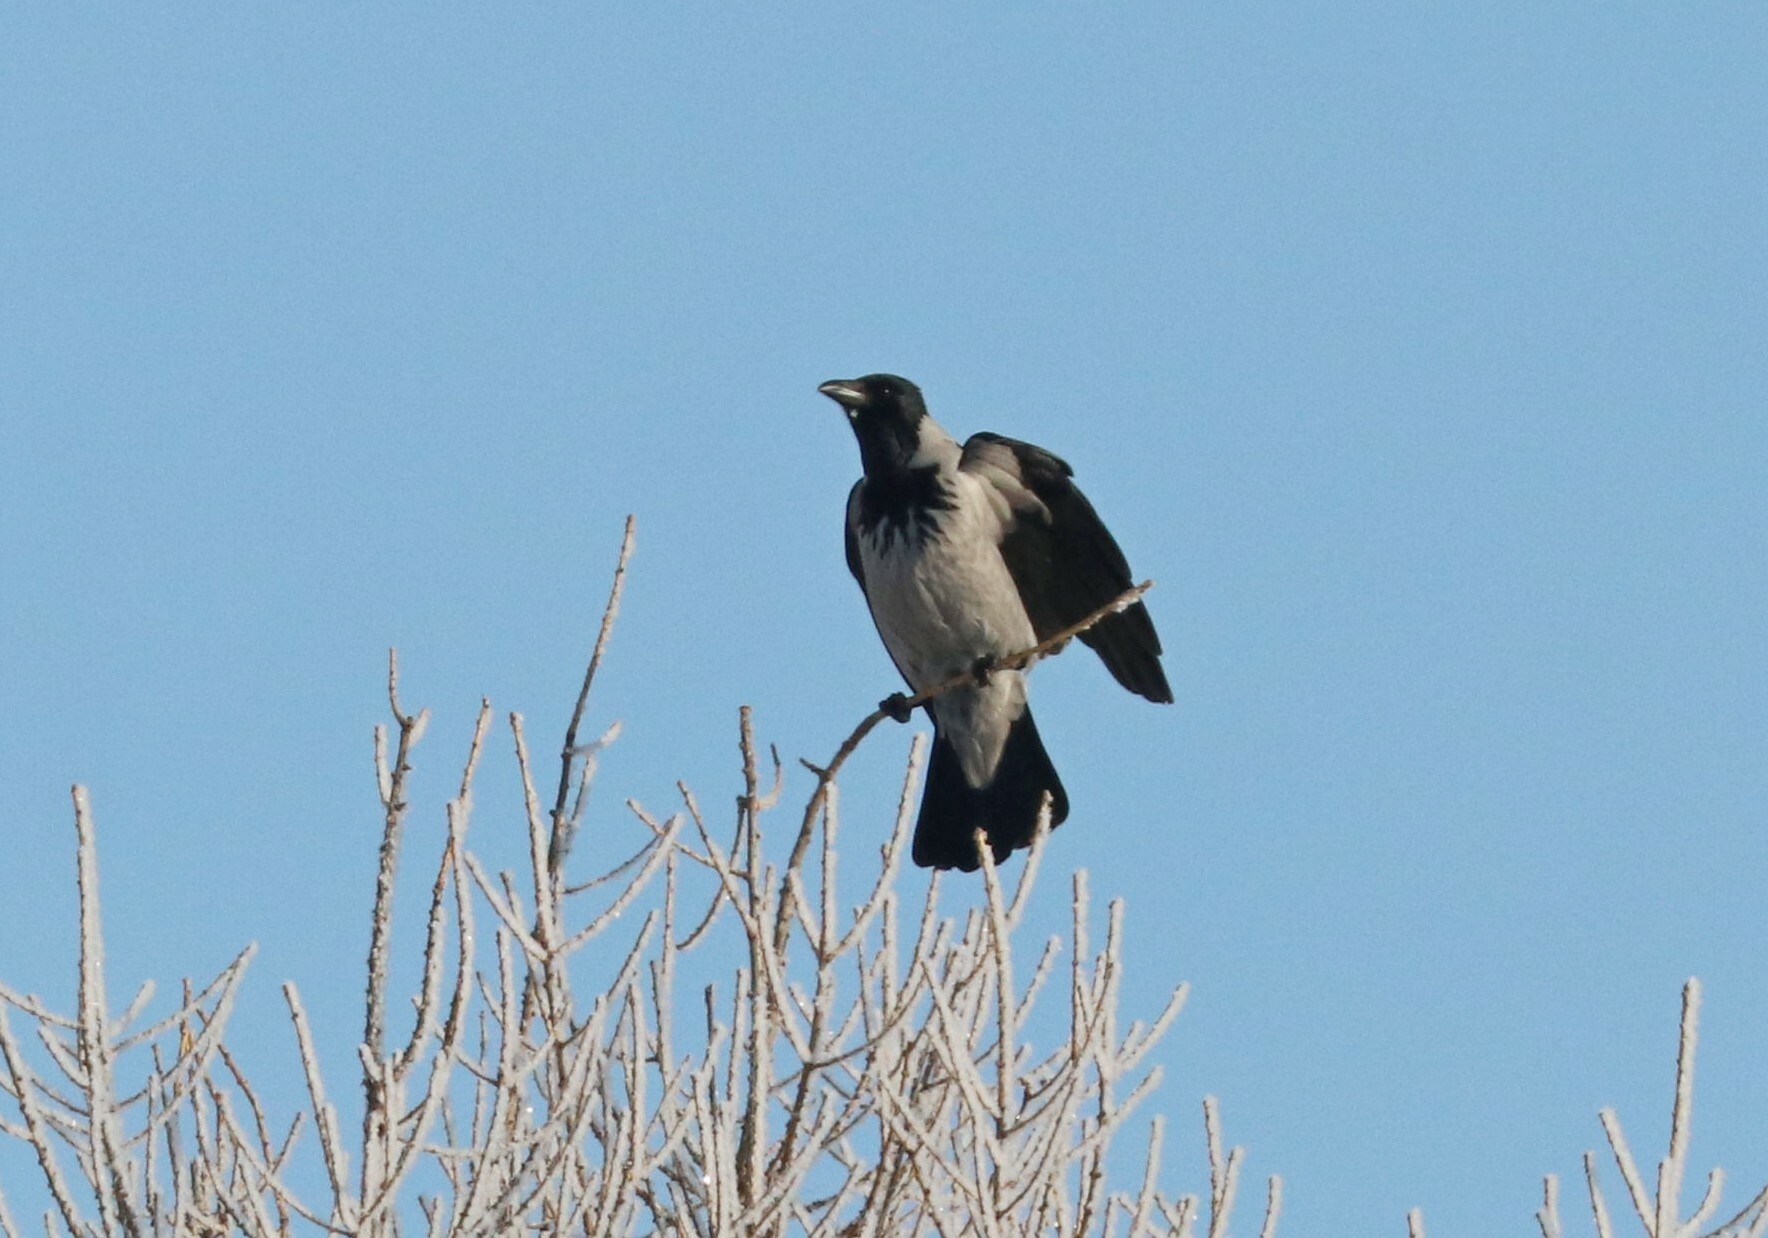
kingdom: Animalia
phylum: Chordata
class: Aves
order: Passeriformes
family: Corvidae
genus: Corvus
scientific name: Corvus cornix
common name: Hooded crow
